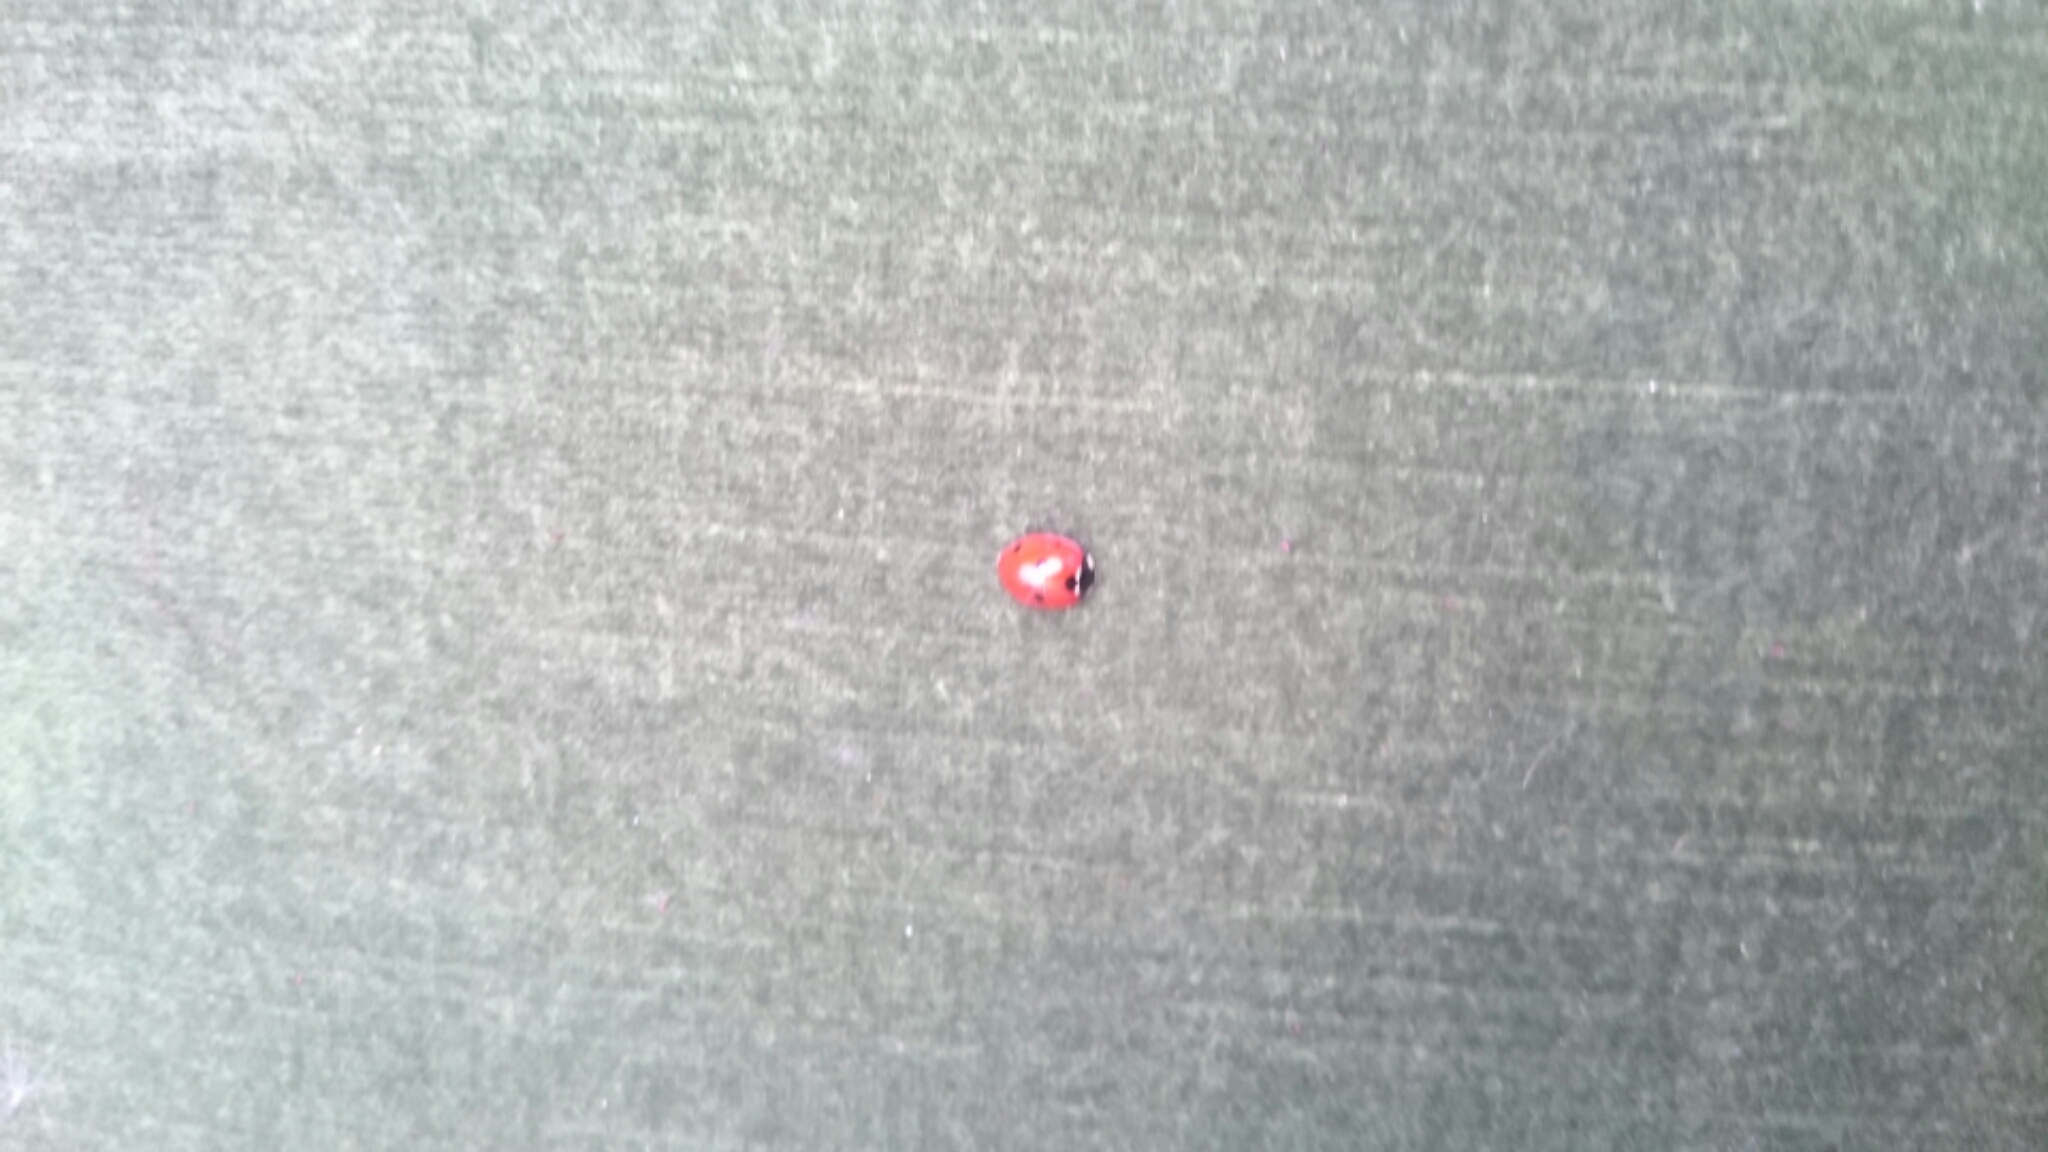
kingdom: Animalia
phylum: Arthropoda
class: Insecta
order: Coleoptera
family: Coccinellidae
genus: Coccinella
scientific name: Coccinella septempunctata
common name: Sevenspotted lady beetle
